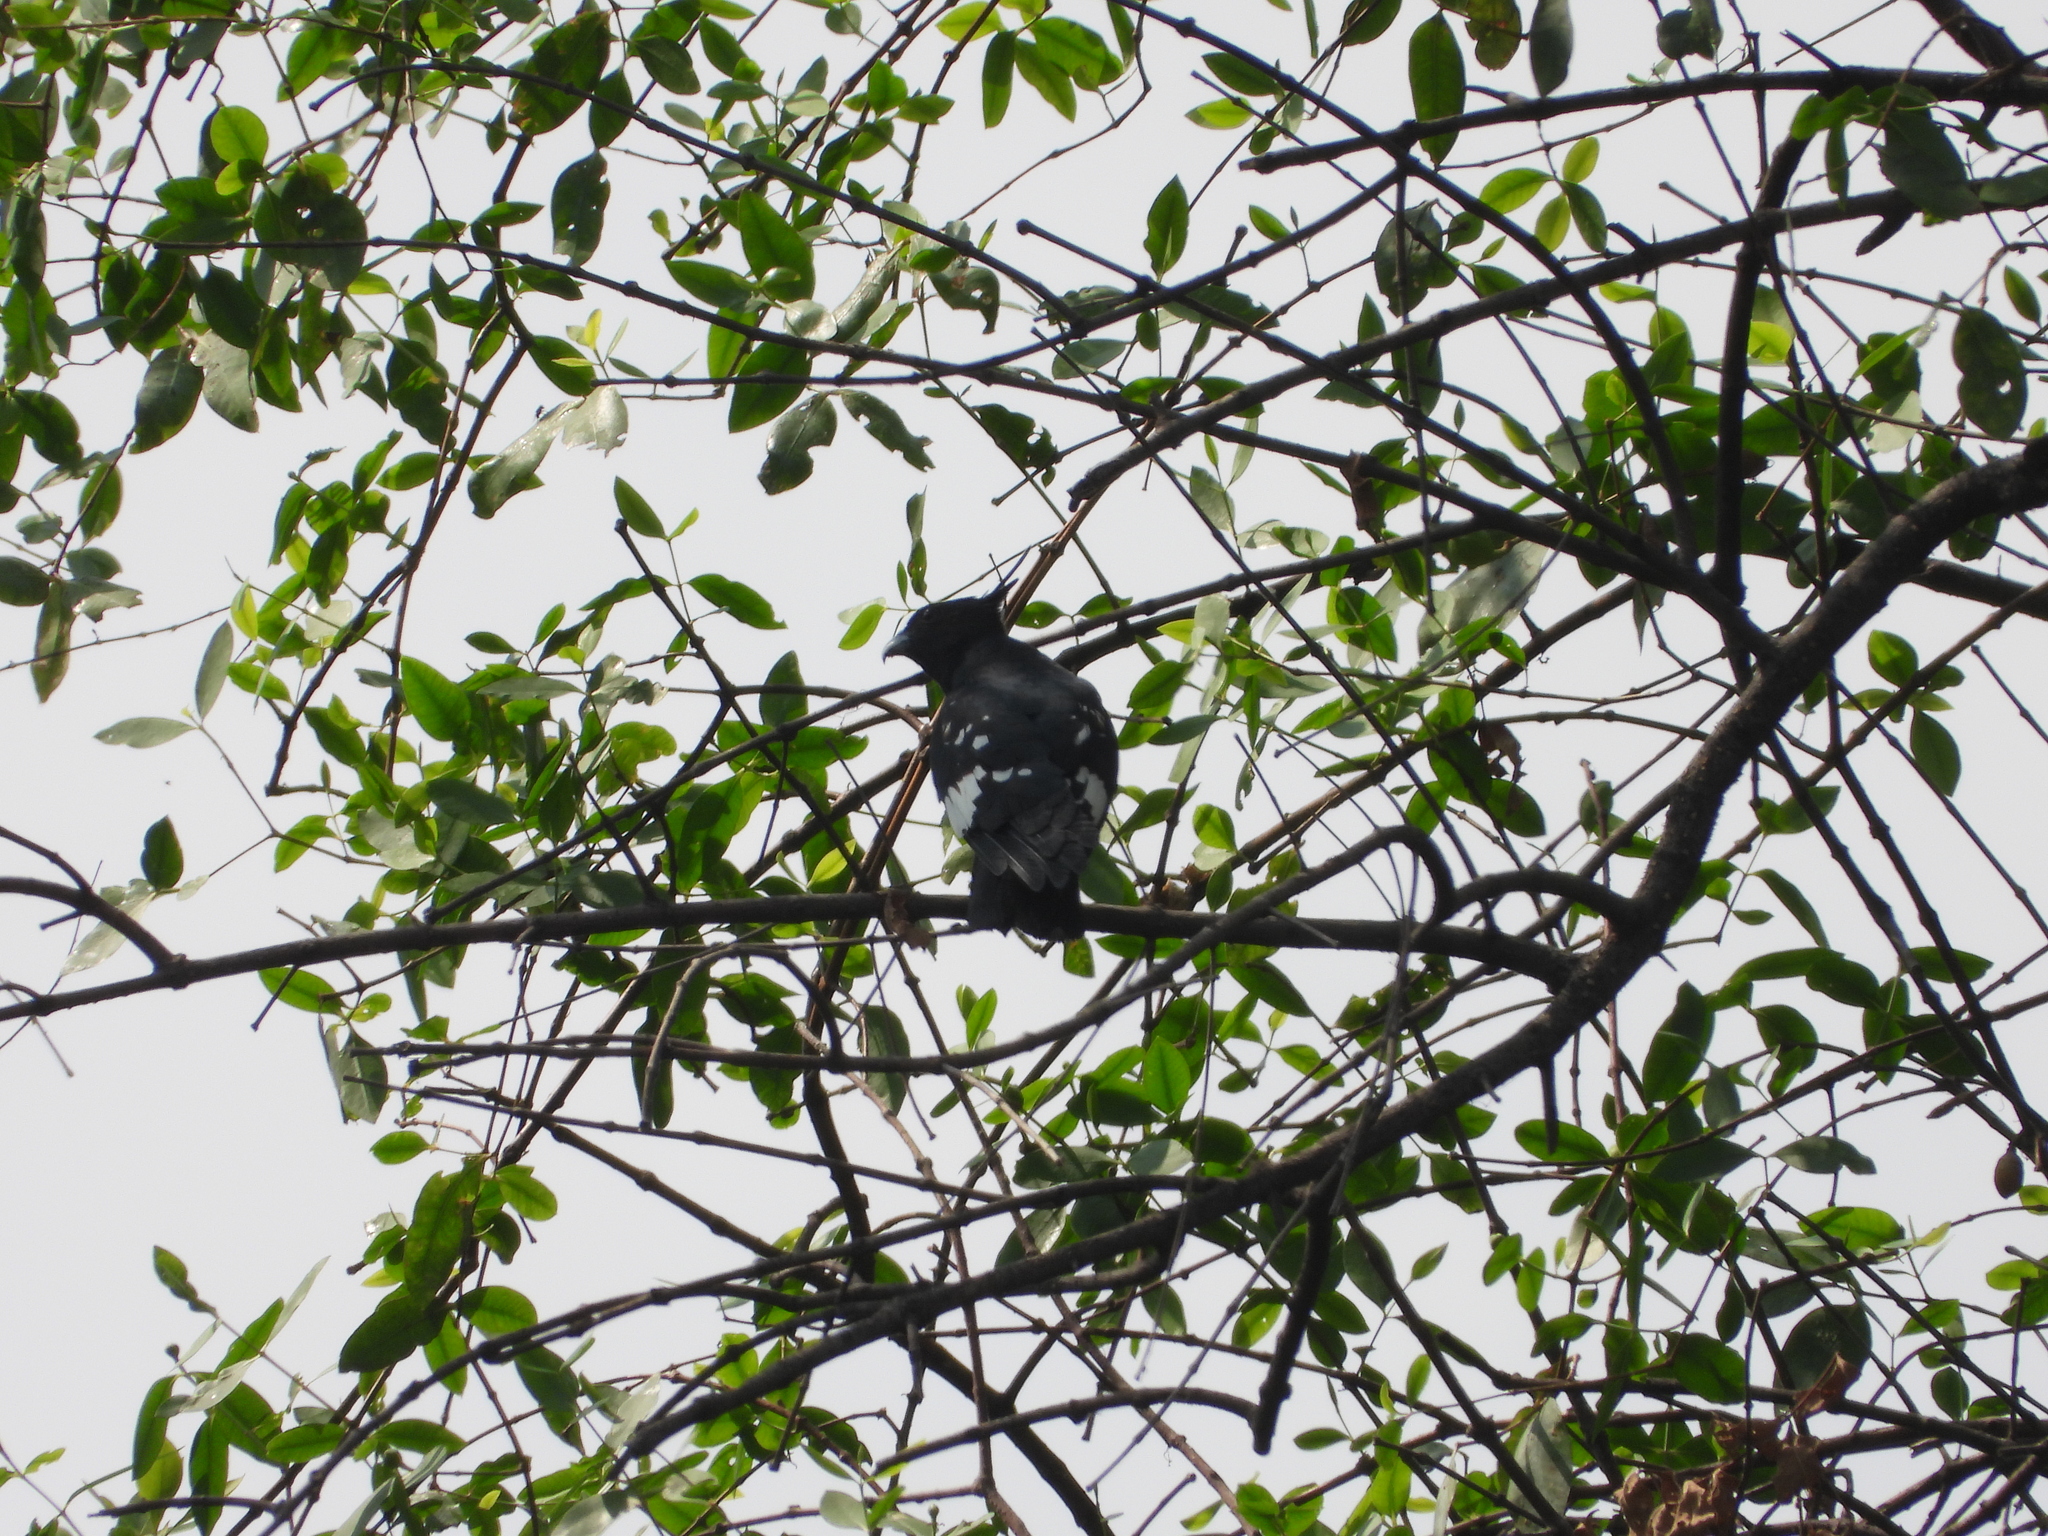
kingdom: Animalia
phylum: Chordata
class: Aves
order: Accipitriformes
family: Accipitridae
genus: Aviceda
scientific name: Aviceda leuphotes
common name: Black baza
